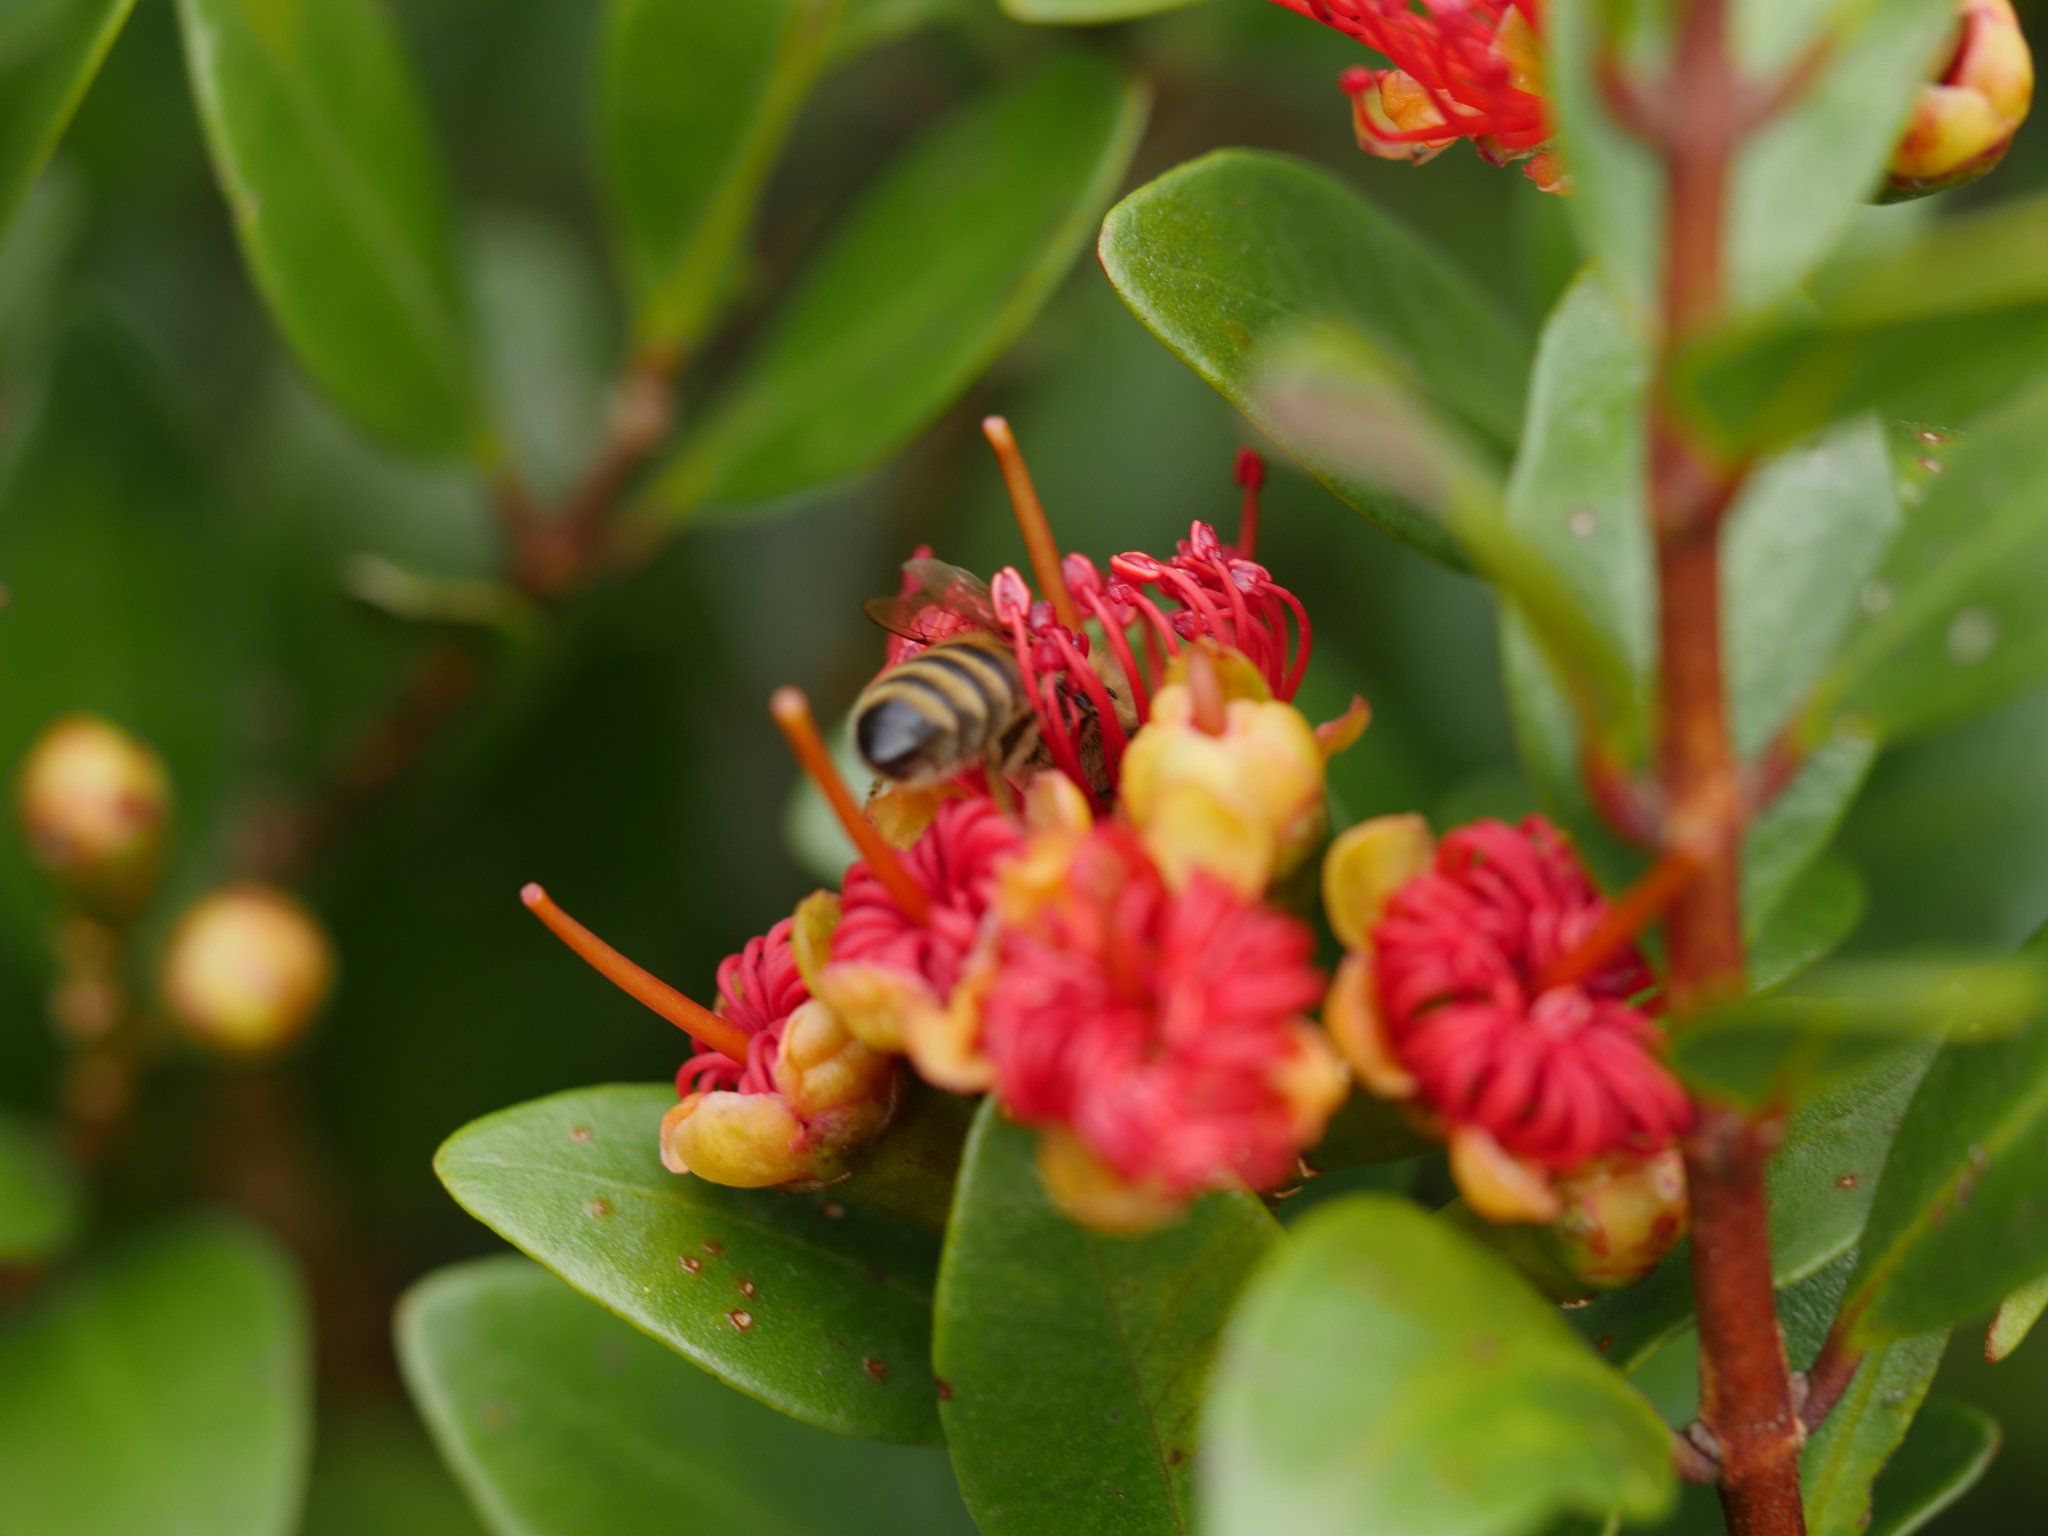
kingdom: Plantae
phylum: Tracheophyta
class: Magnoliopsida
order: Myrtales
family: Myrtaceae
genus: Metrosideros
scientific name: Metrosideros fulgens
